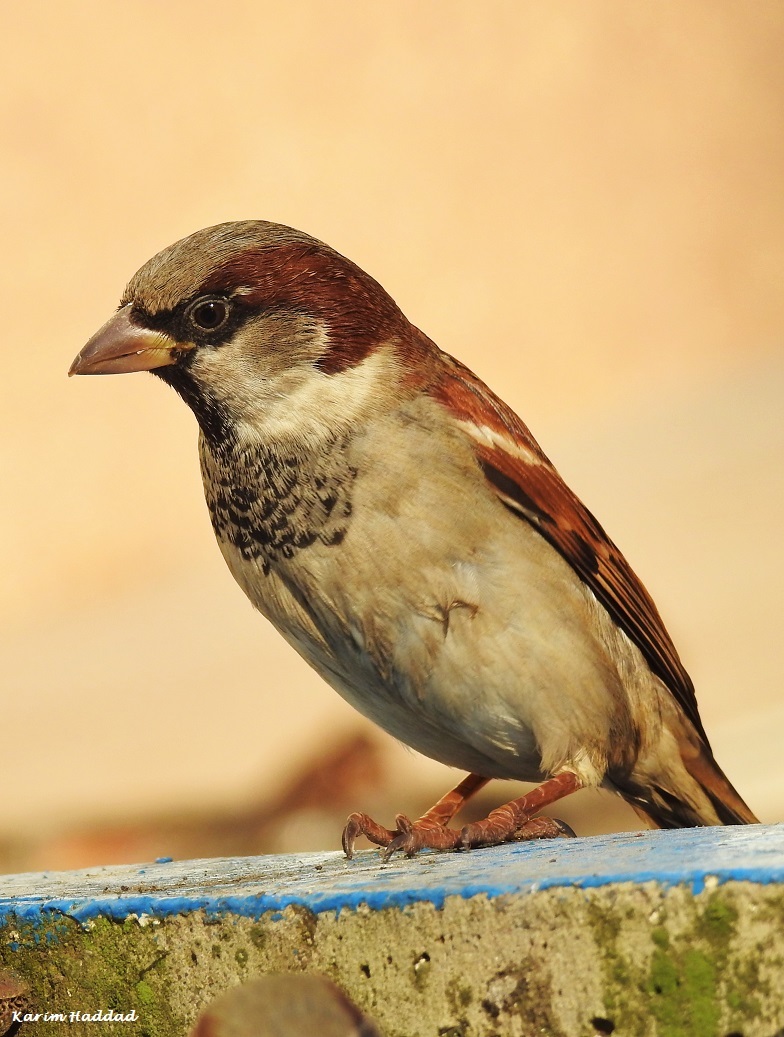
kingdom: Animalia
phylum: Chordata
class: Aves
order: Passeriformes
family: Passeridae
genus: Passer
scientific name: Passer domesticus
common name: House sparrow
